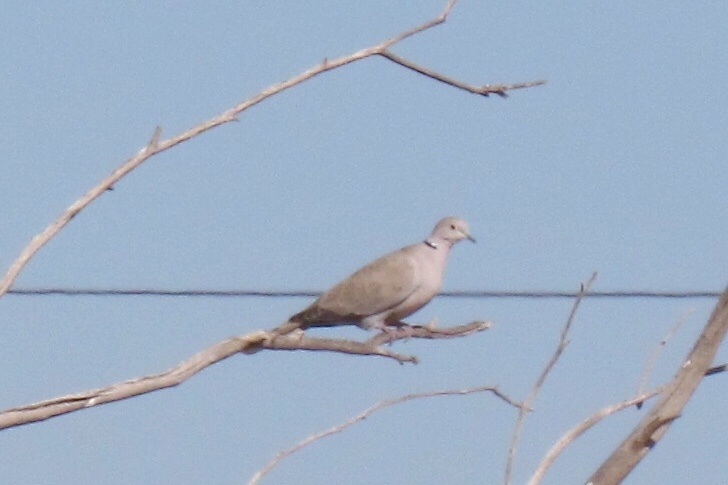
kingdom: Animalia
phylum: Chordata
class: Aves
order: Columbiformes
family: Columbidae
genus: Streptopelia
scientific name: Streptopelia decaocto
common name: Eurasian collared dove
